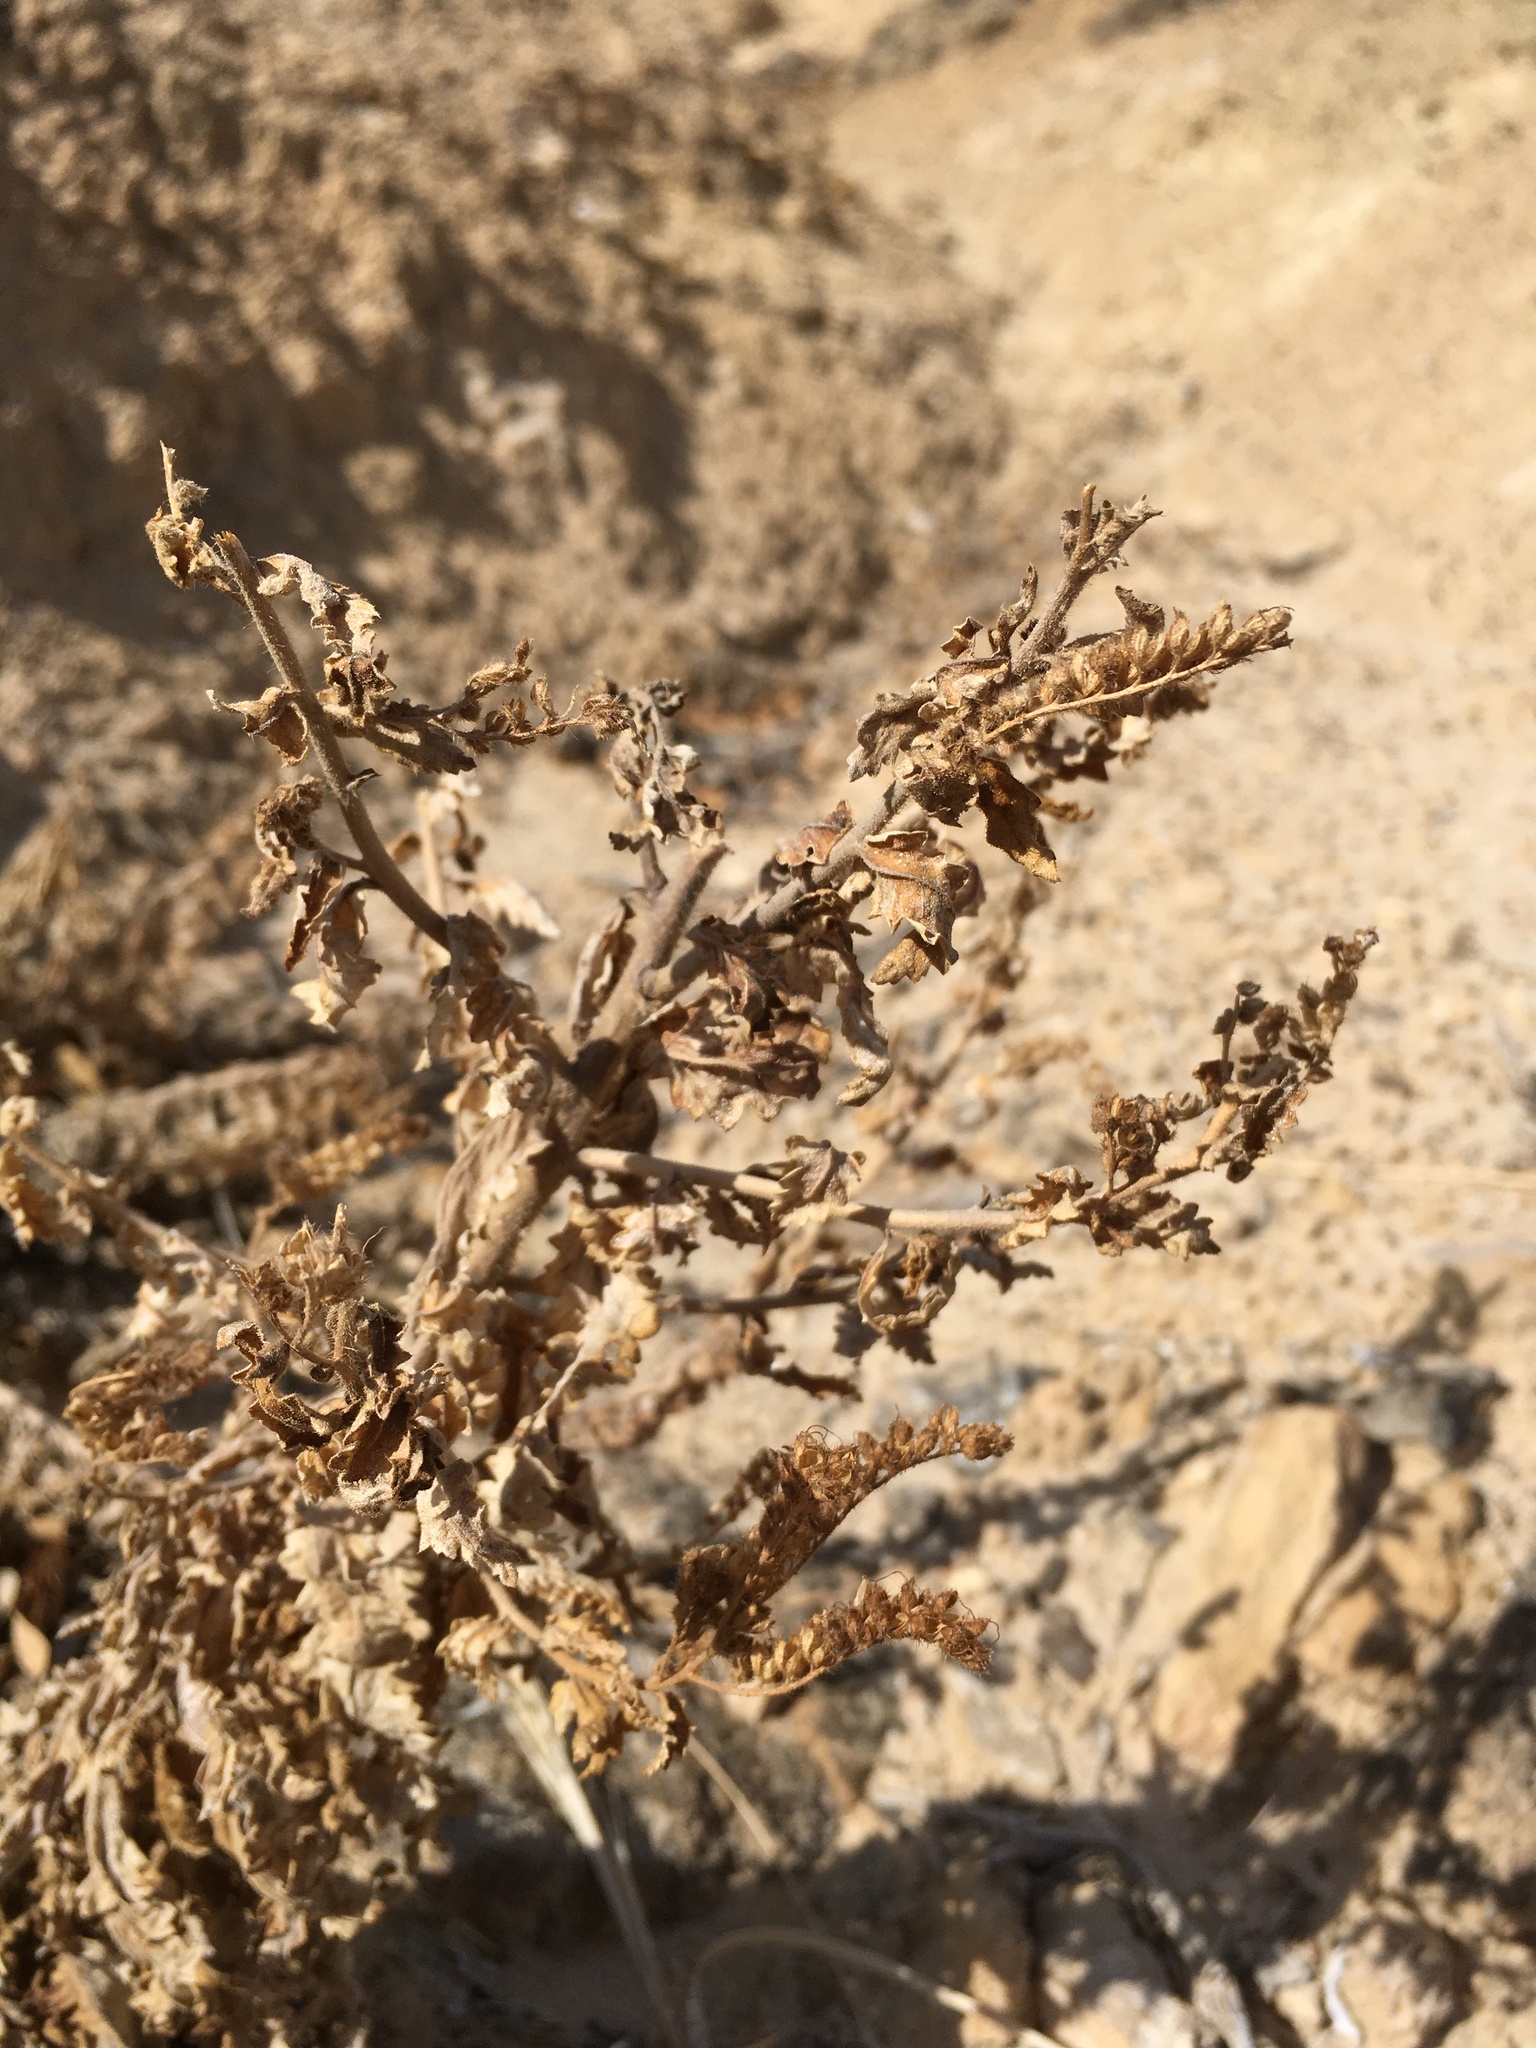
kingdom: Plantae
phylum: Tracheophyta
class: Magnoliopsida
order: Boraginales
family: Hydrophyllaceae
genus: Phacelia
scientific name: Phacelia sivinskii
